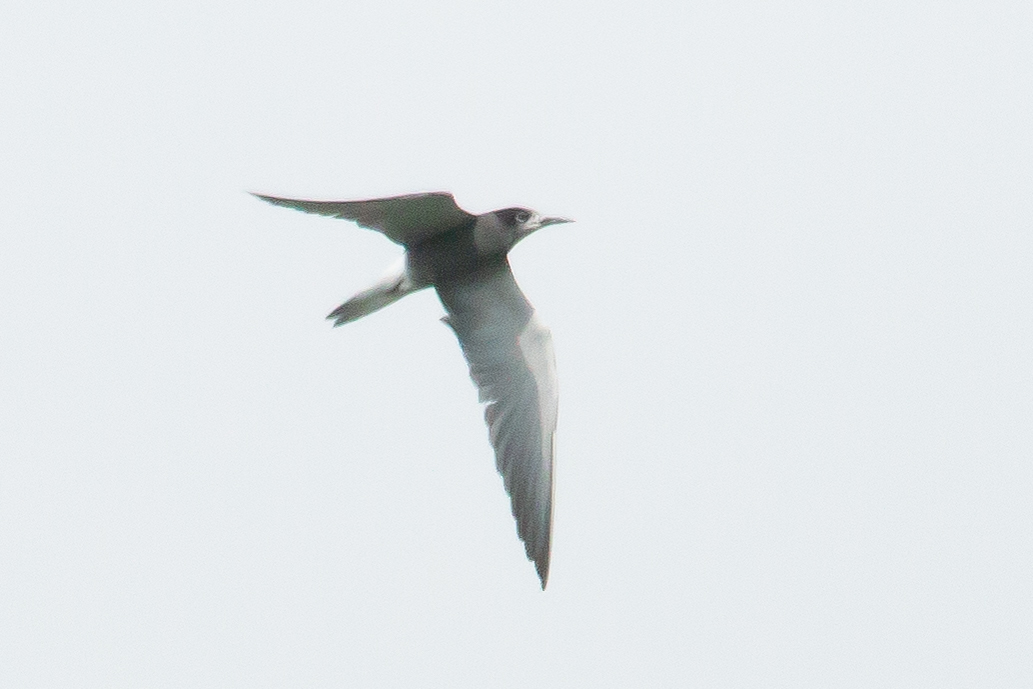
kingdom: Animalia
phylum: Chordata
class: Aves
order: Charadriiformes
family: Laridae
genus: Chlidonias
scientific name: Chlidonias niger
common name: Black tern
